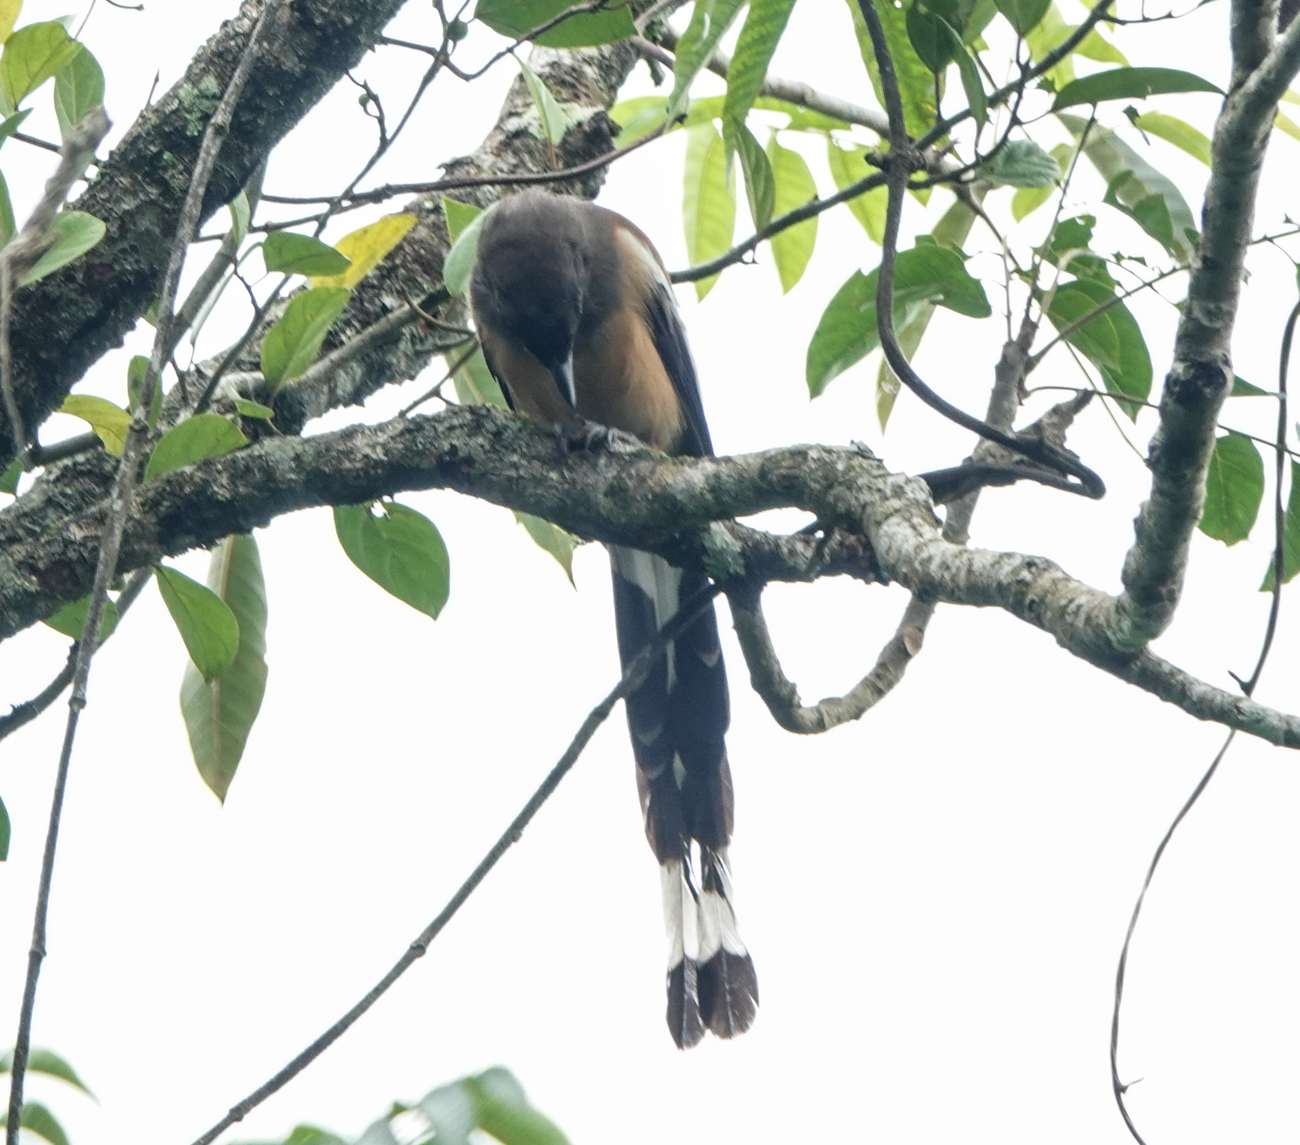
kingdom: Animalia
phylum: Chordata
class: Aves
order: Passeriformes
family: Corvidae
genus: Dendrocitta
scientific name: Dendrocitta vagabunda
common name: Rufous treepie
